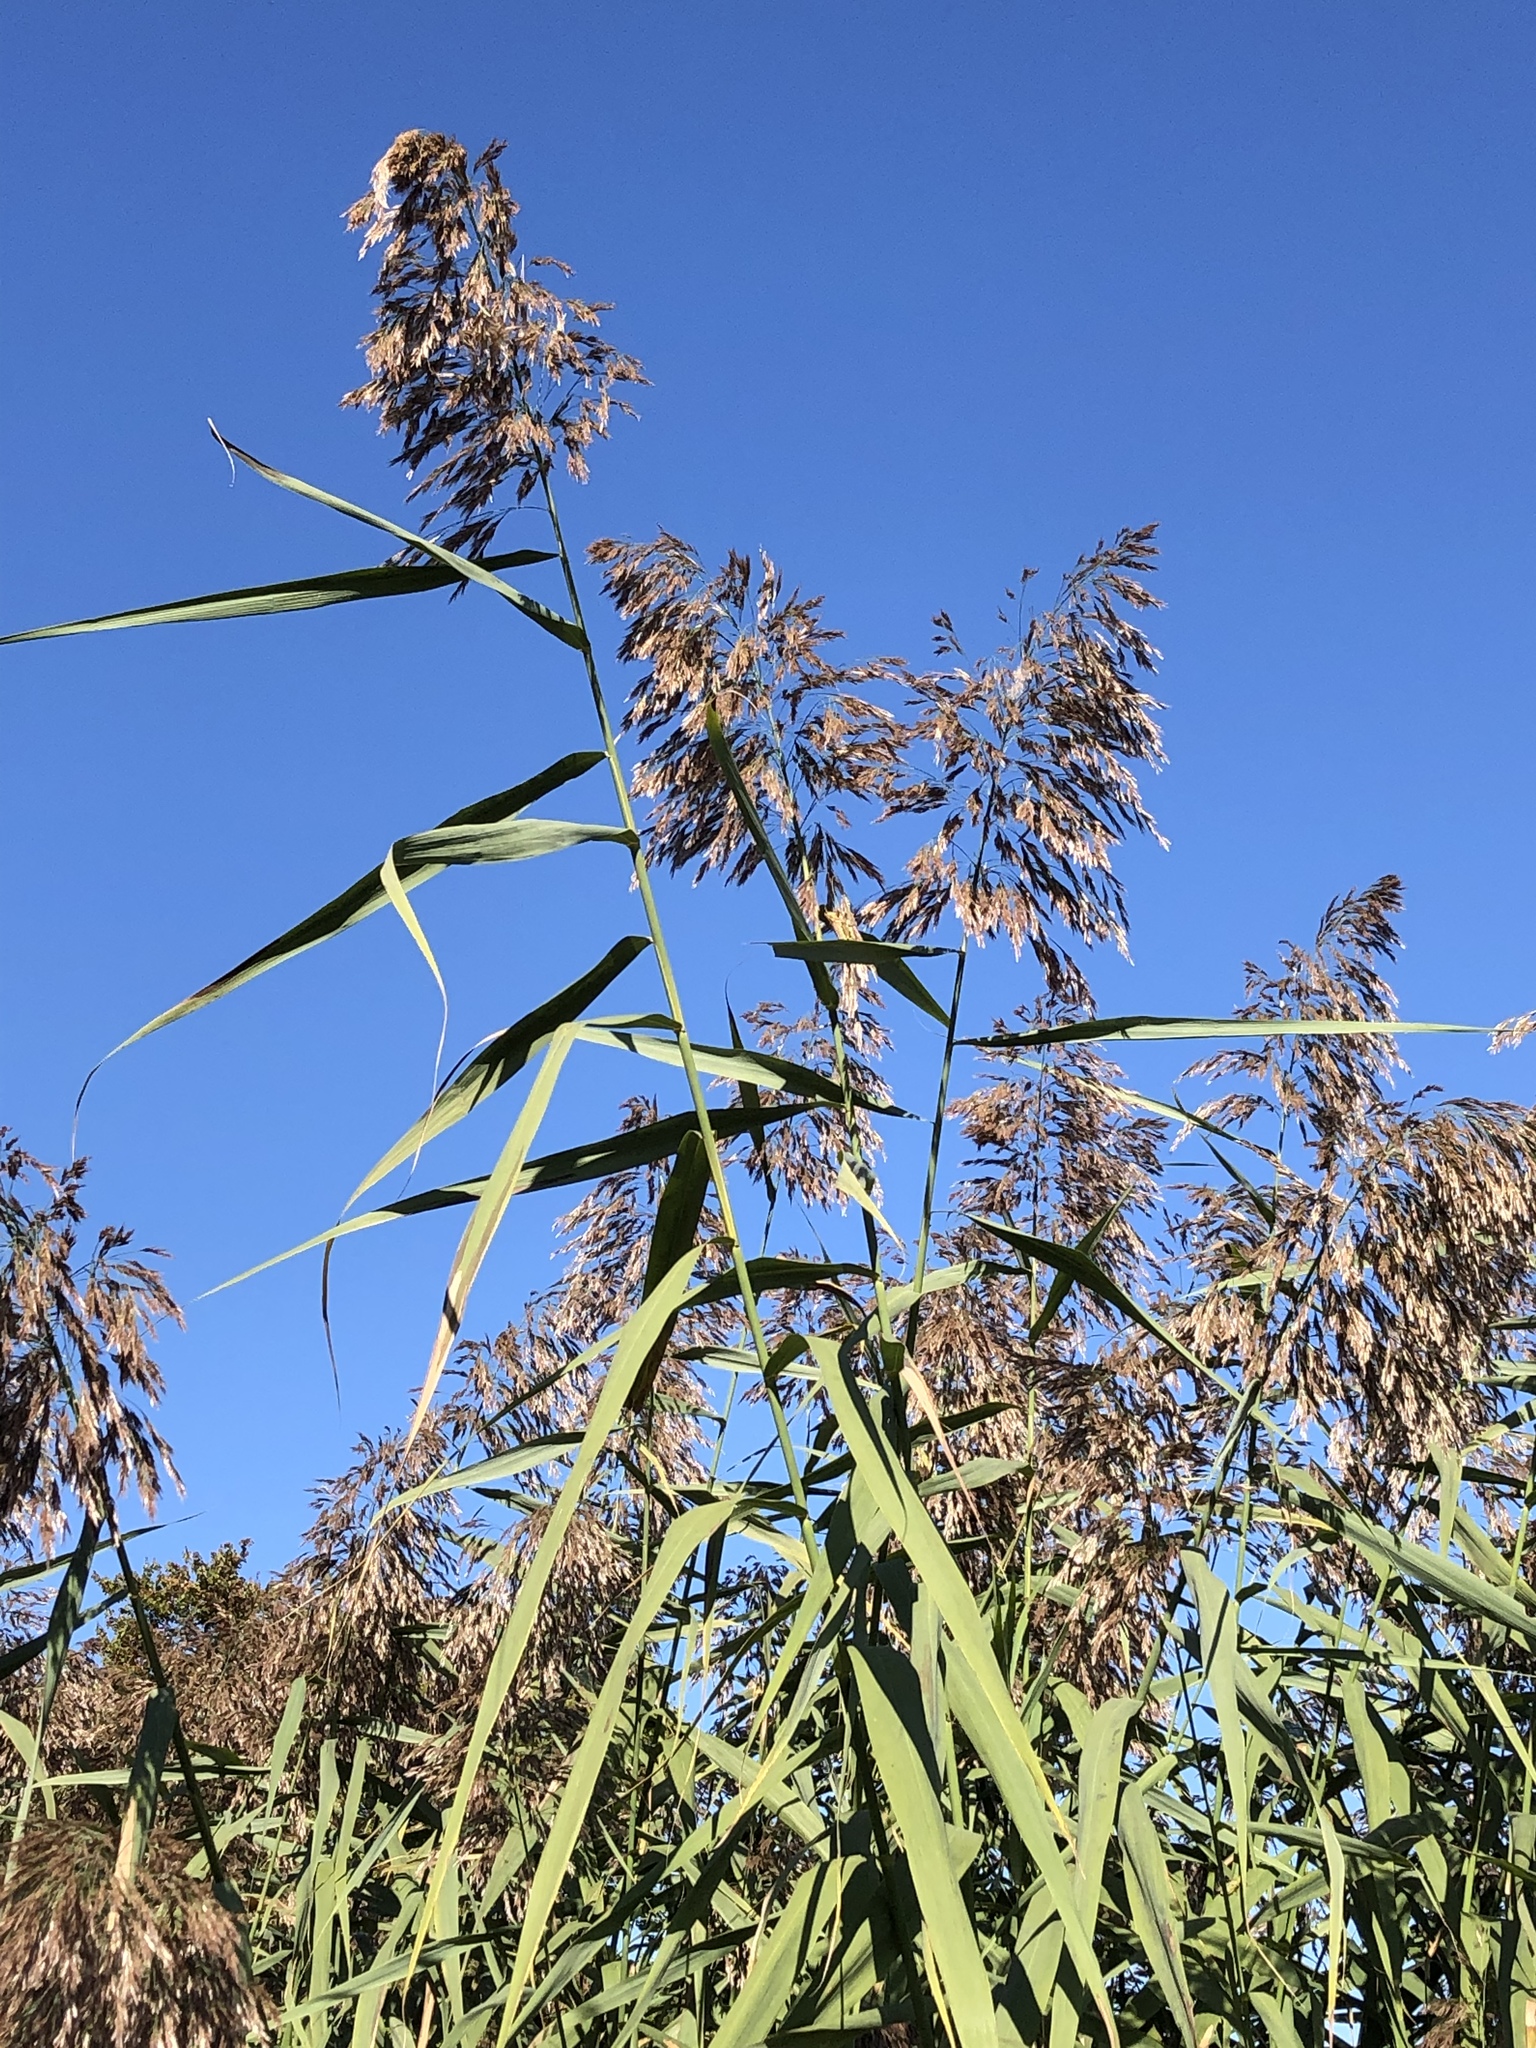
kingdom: Plantae
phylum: Tracheophyta
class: Liliopsida
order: Poales
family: Poaceae
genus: Phragmites
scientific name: Phragmites australis
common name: Common reed
